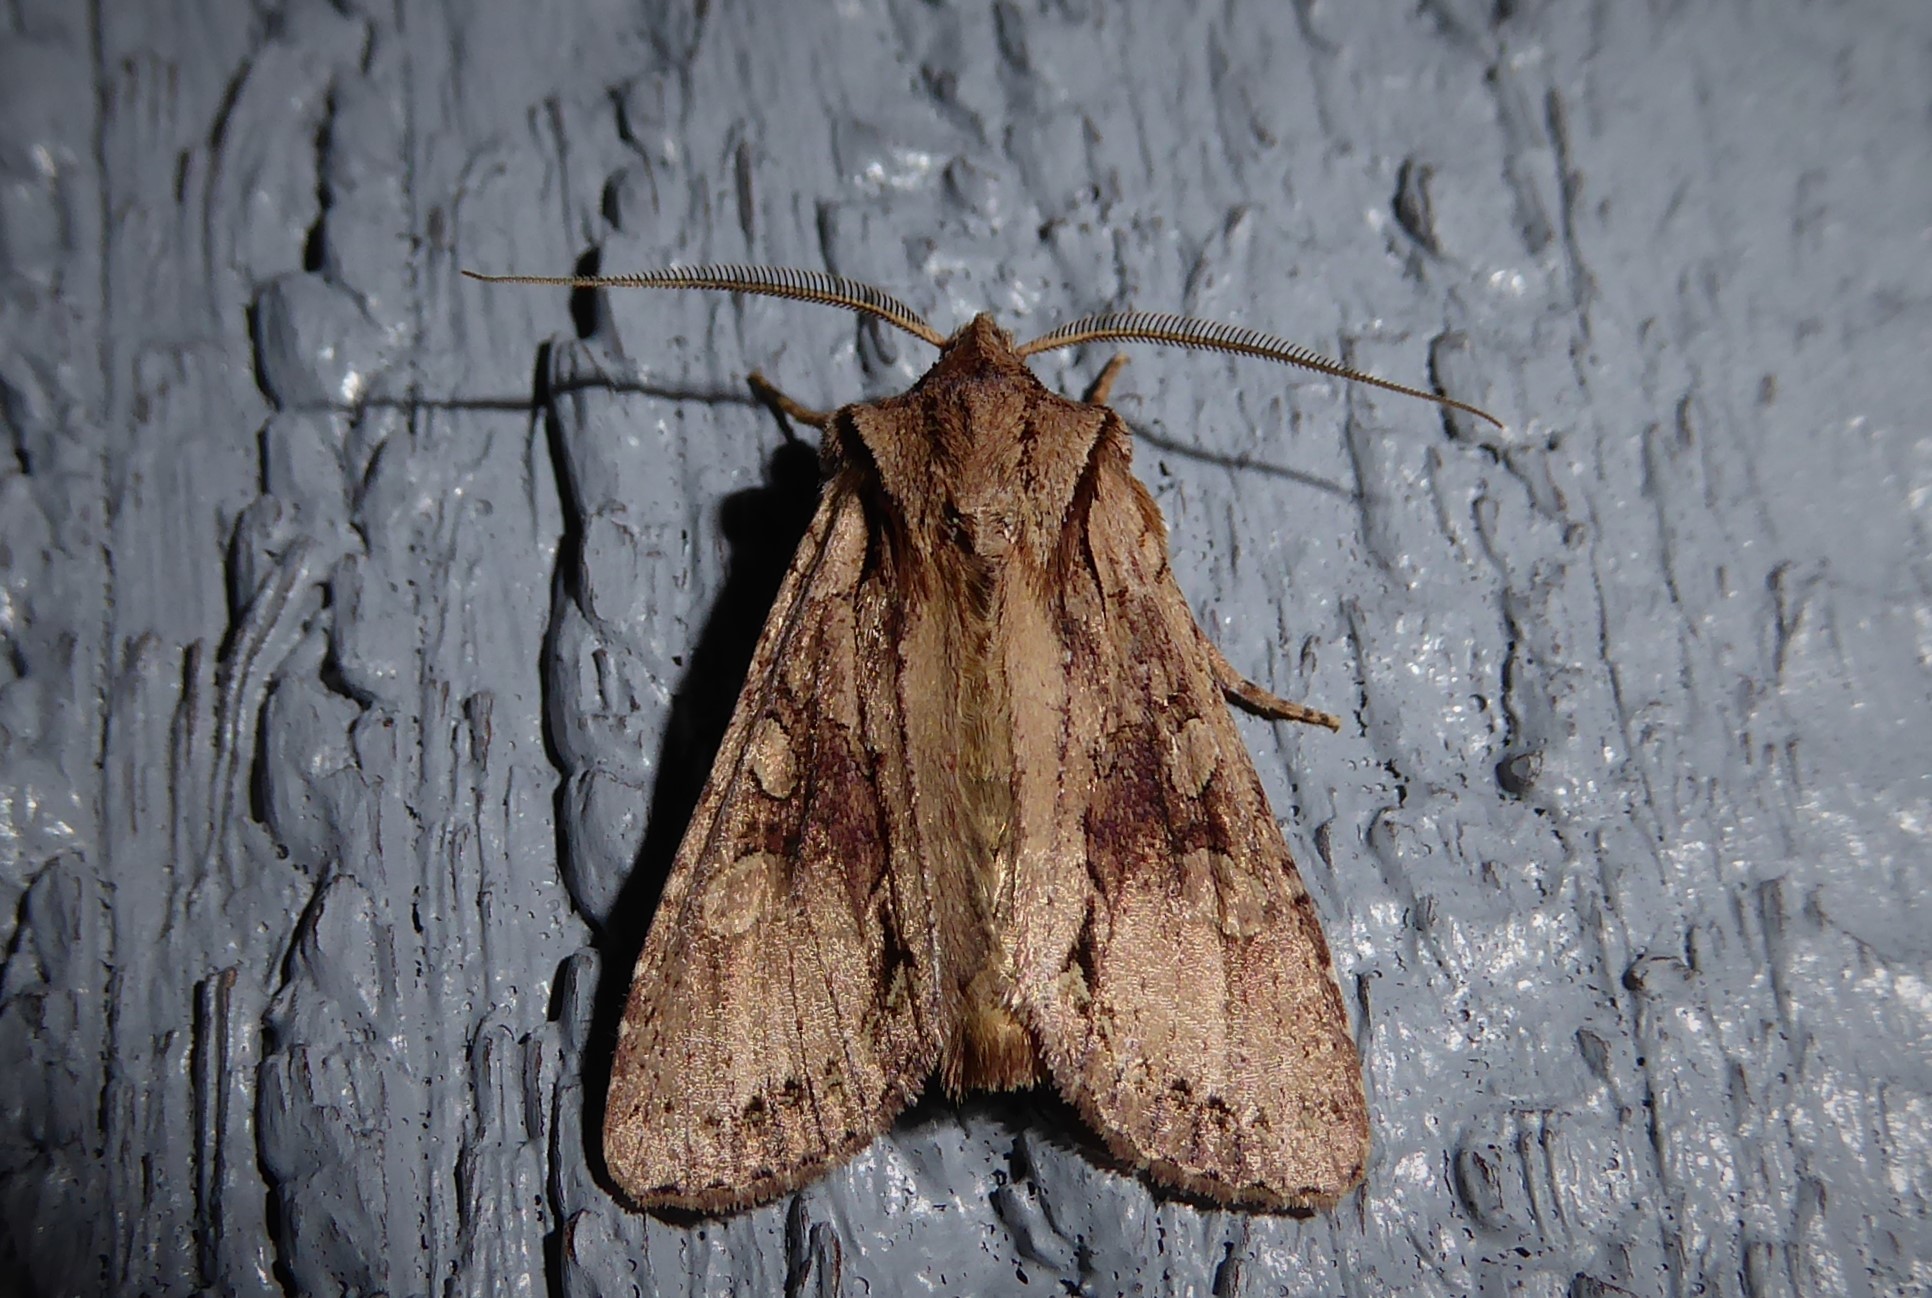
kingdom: Animalia
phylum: Arthropoda
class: Insecta
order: Lepidoptera
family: Noctuidae
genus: Ichneutica
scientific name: Ichneutica
